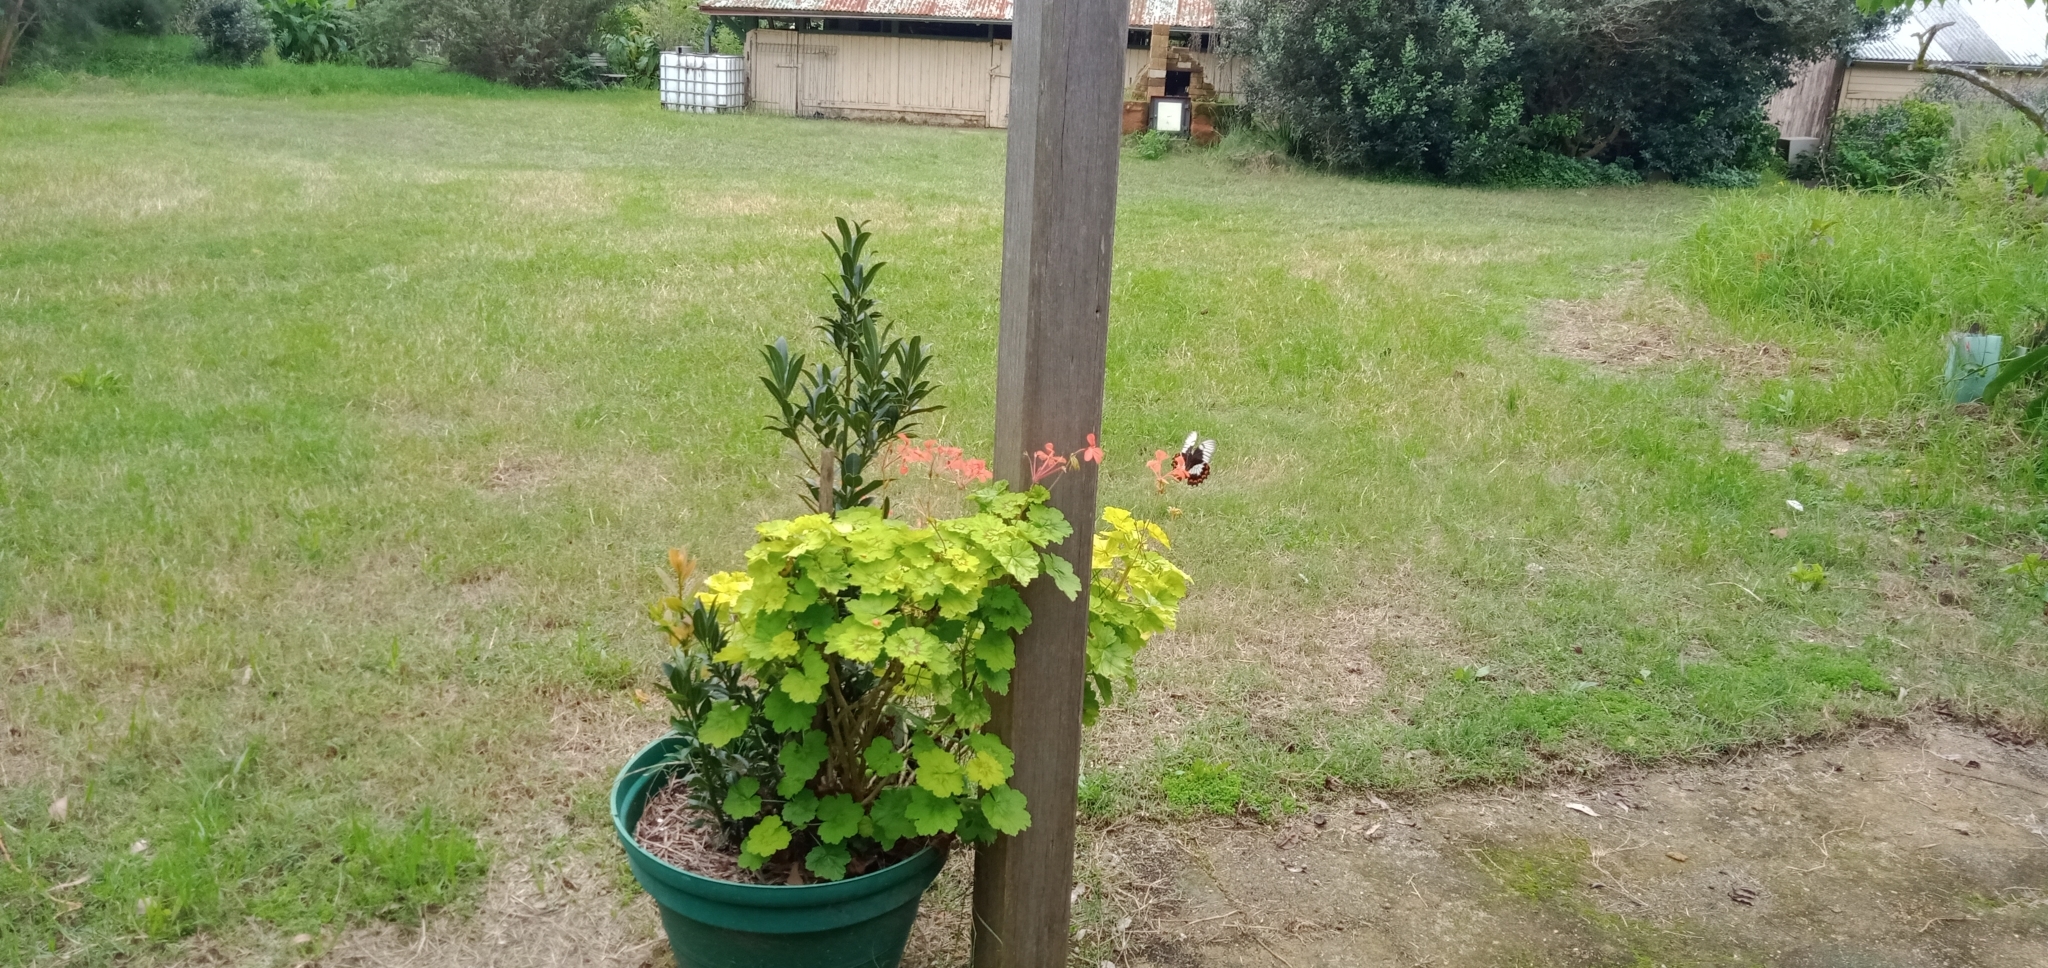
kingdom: Animalia
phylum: Arthropoda
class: Insecta
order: Lepidoptera
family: Papilionidae
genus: Papilio
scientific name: Papilio aegeus
